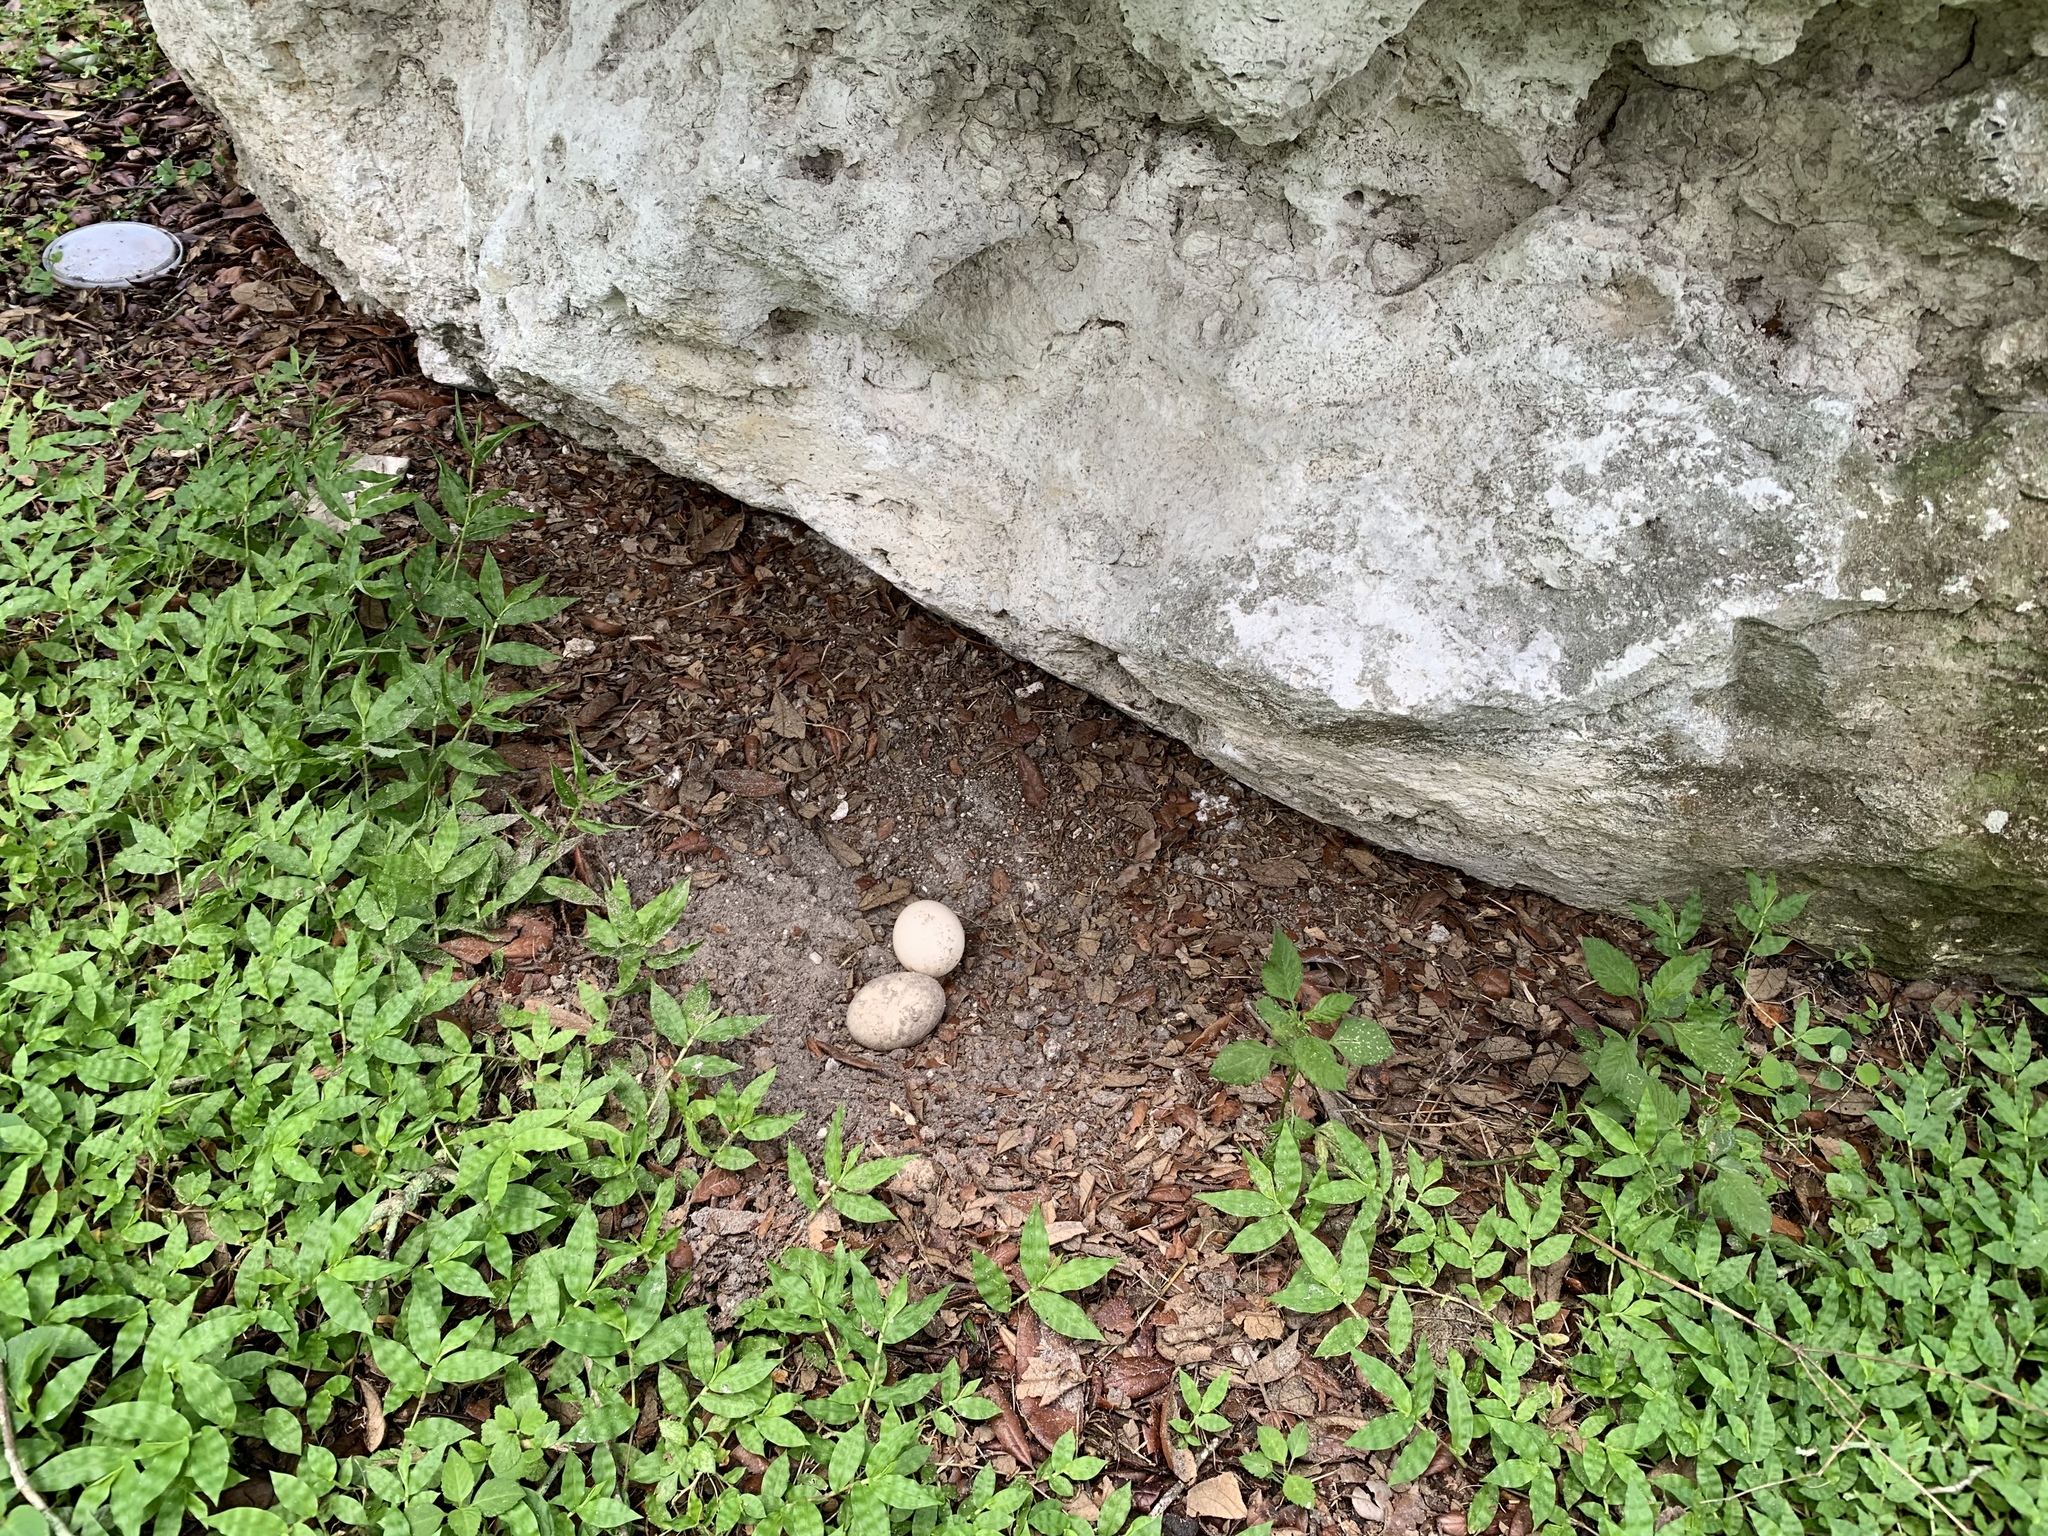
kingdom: Animalia
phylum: Chordata
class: Aves
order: Anseriformes
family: Anatidae
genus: Cairina
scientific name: Cairina moschata
